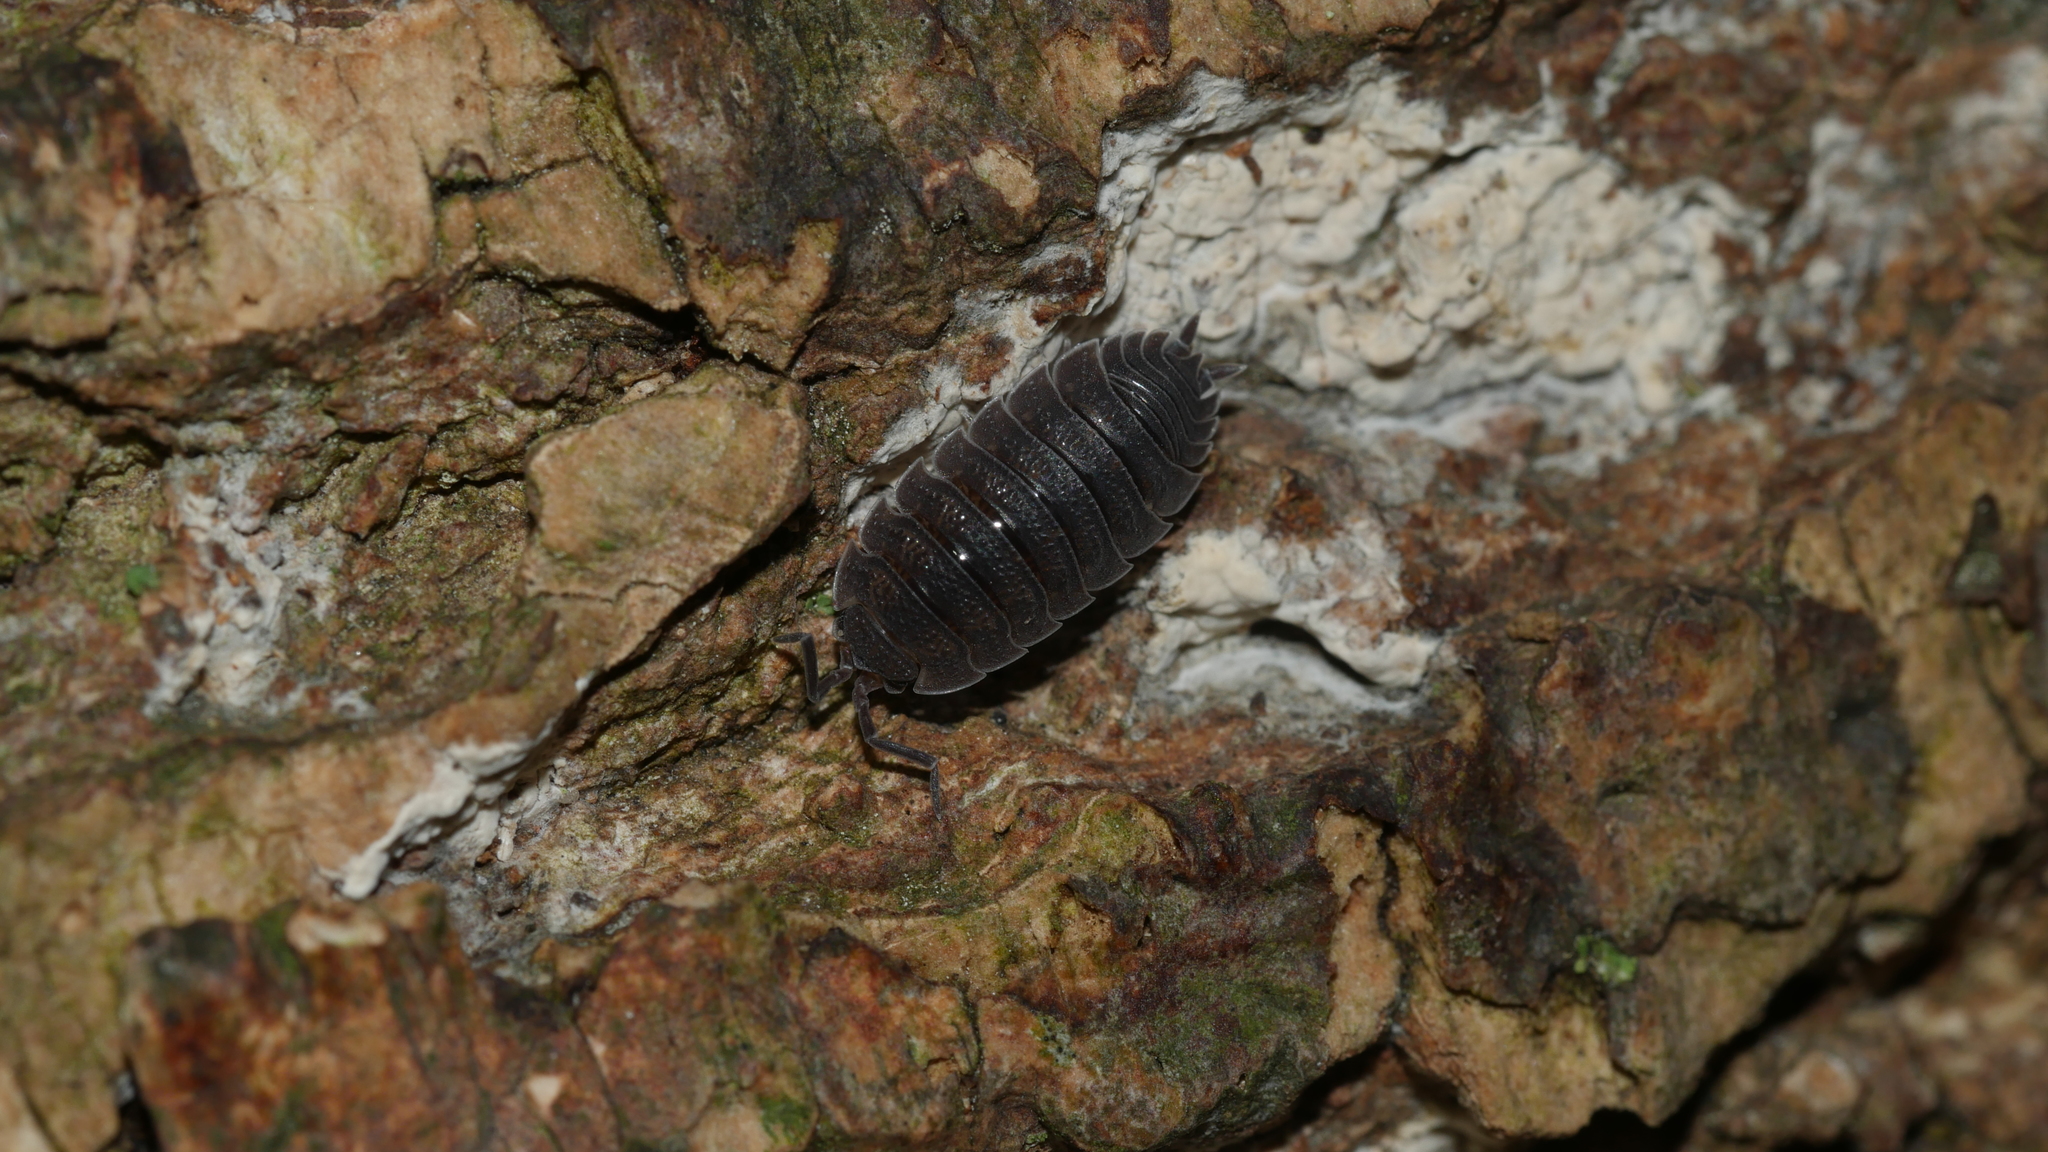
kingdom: Animalia
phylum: Arthropoda
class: Malacostraca
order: Isopoda
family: Porcellionidae
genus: Porcellio
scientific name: Porcellio scaber
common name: Common rough woodlouse
